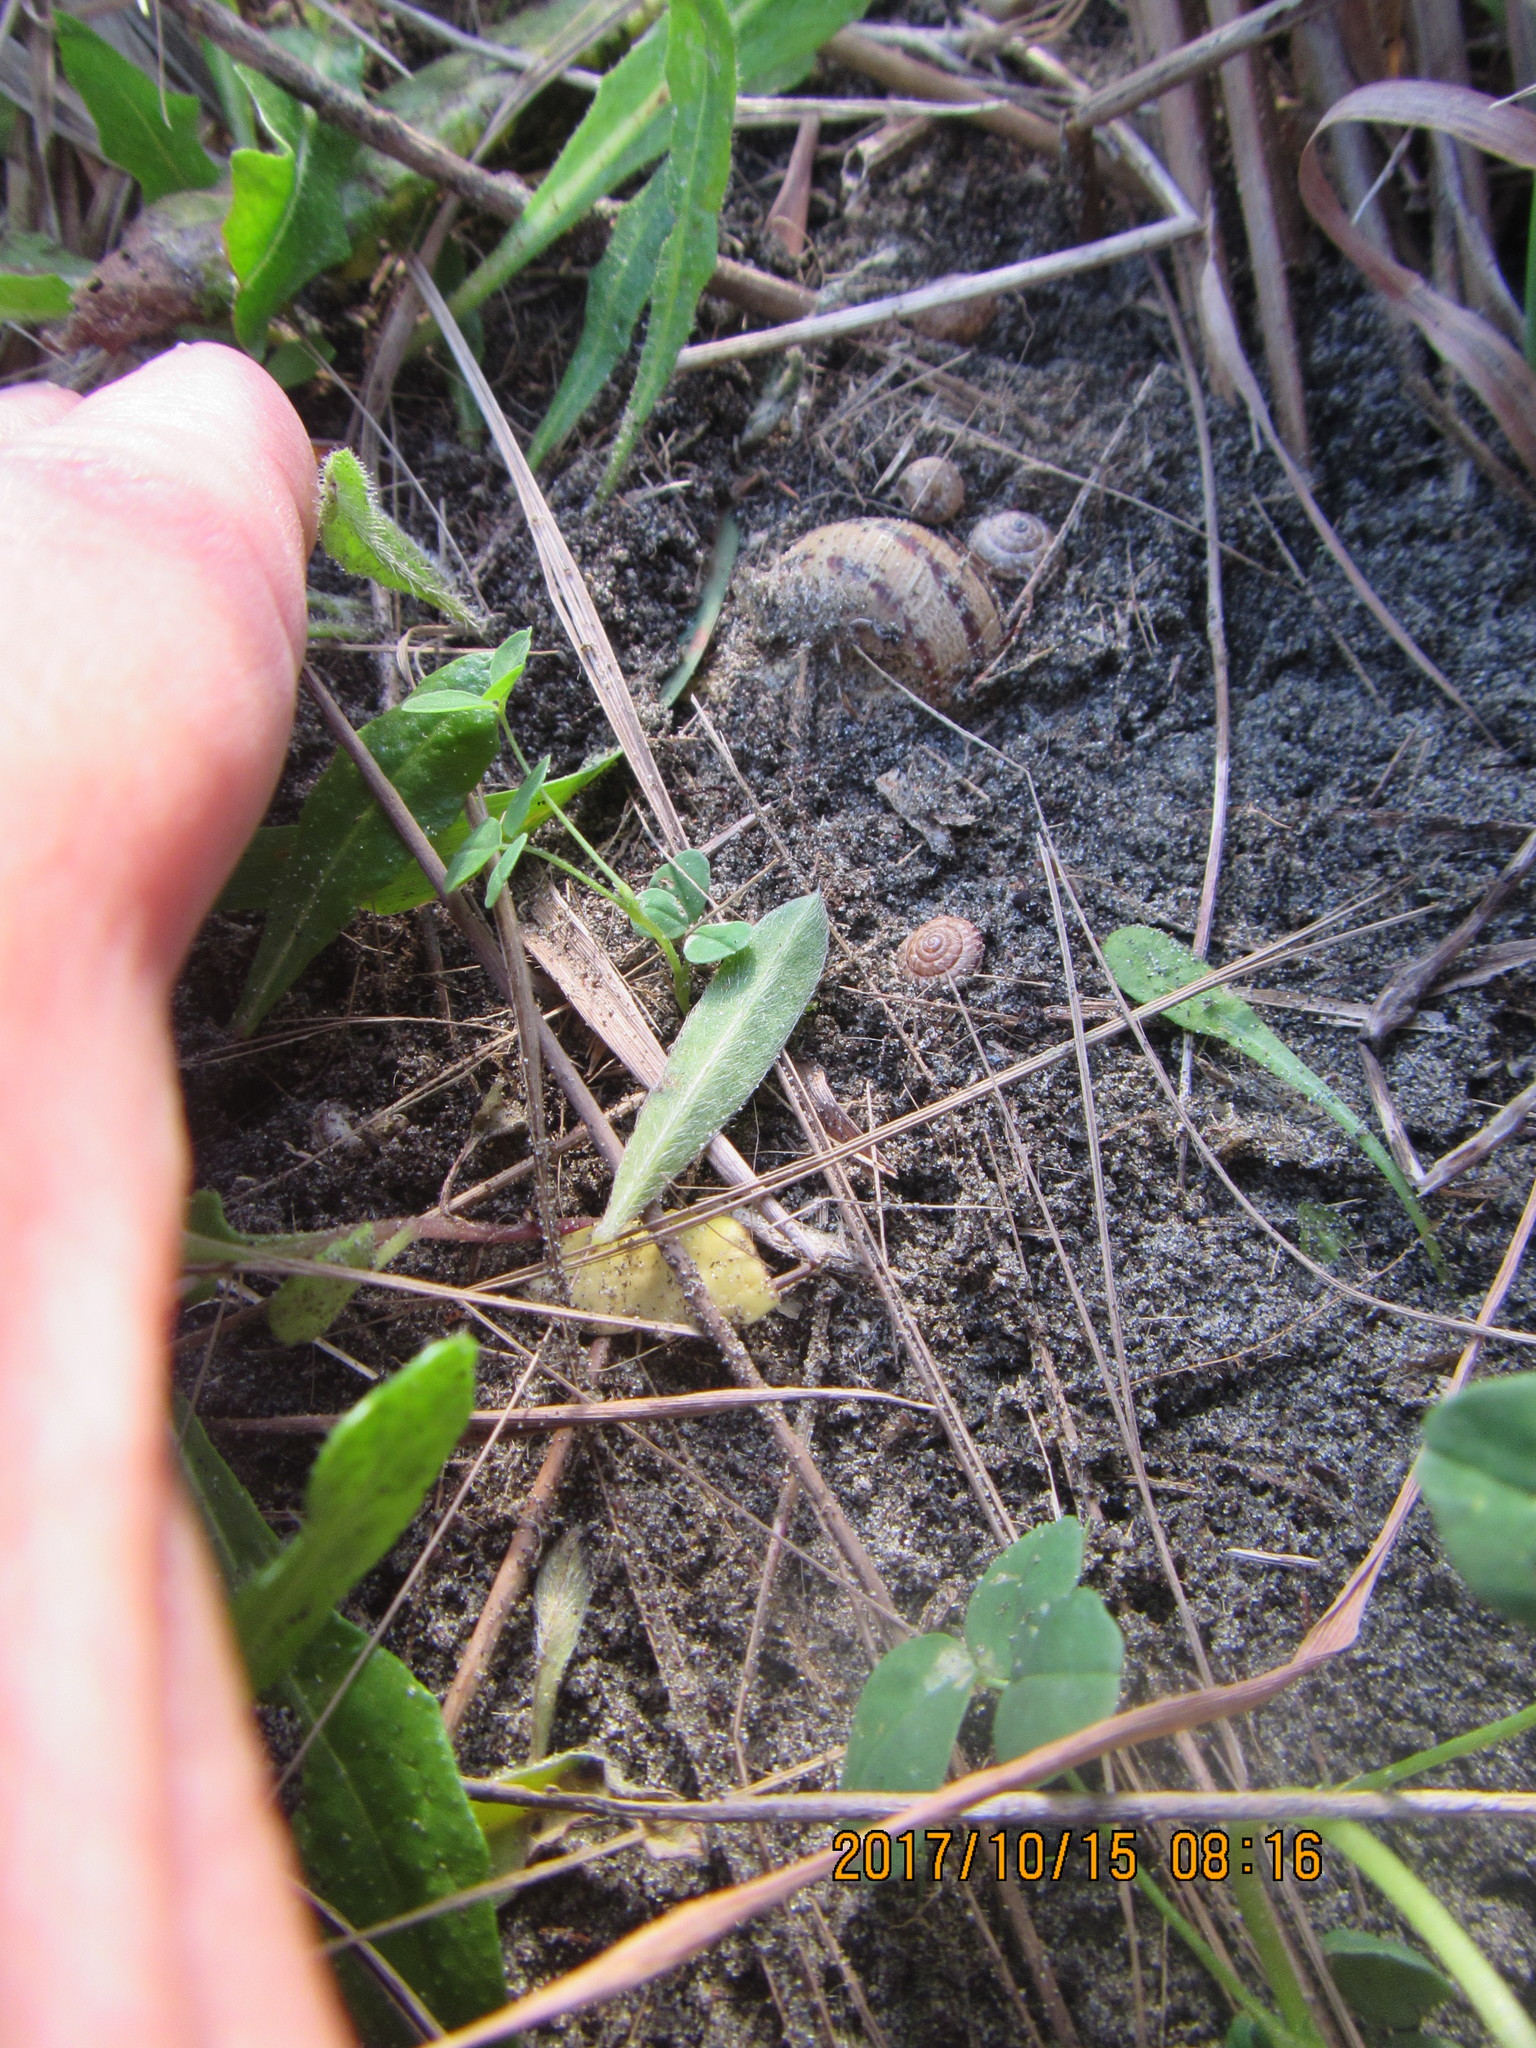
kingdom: Animalia
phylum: Mollusca
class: Gastropoda
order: Stylommatophora
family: Geomitridae
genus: Xeroplexa
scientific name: Xeroplexa intersecta
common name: Wrinkled snail
